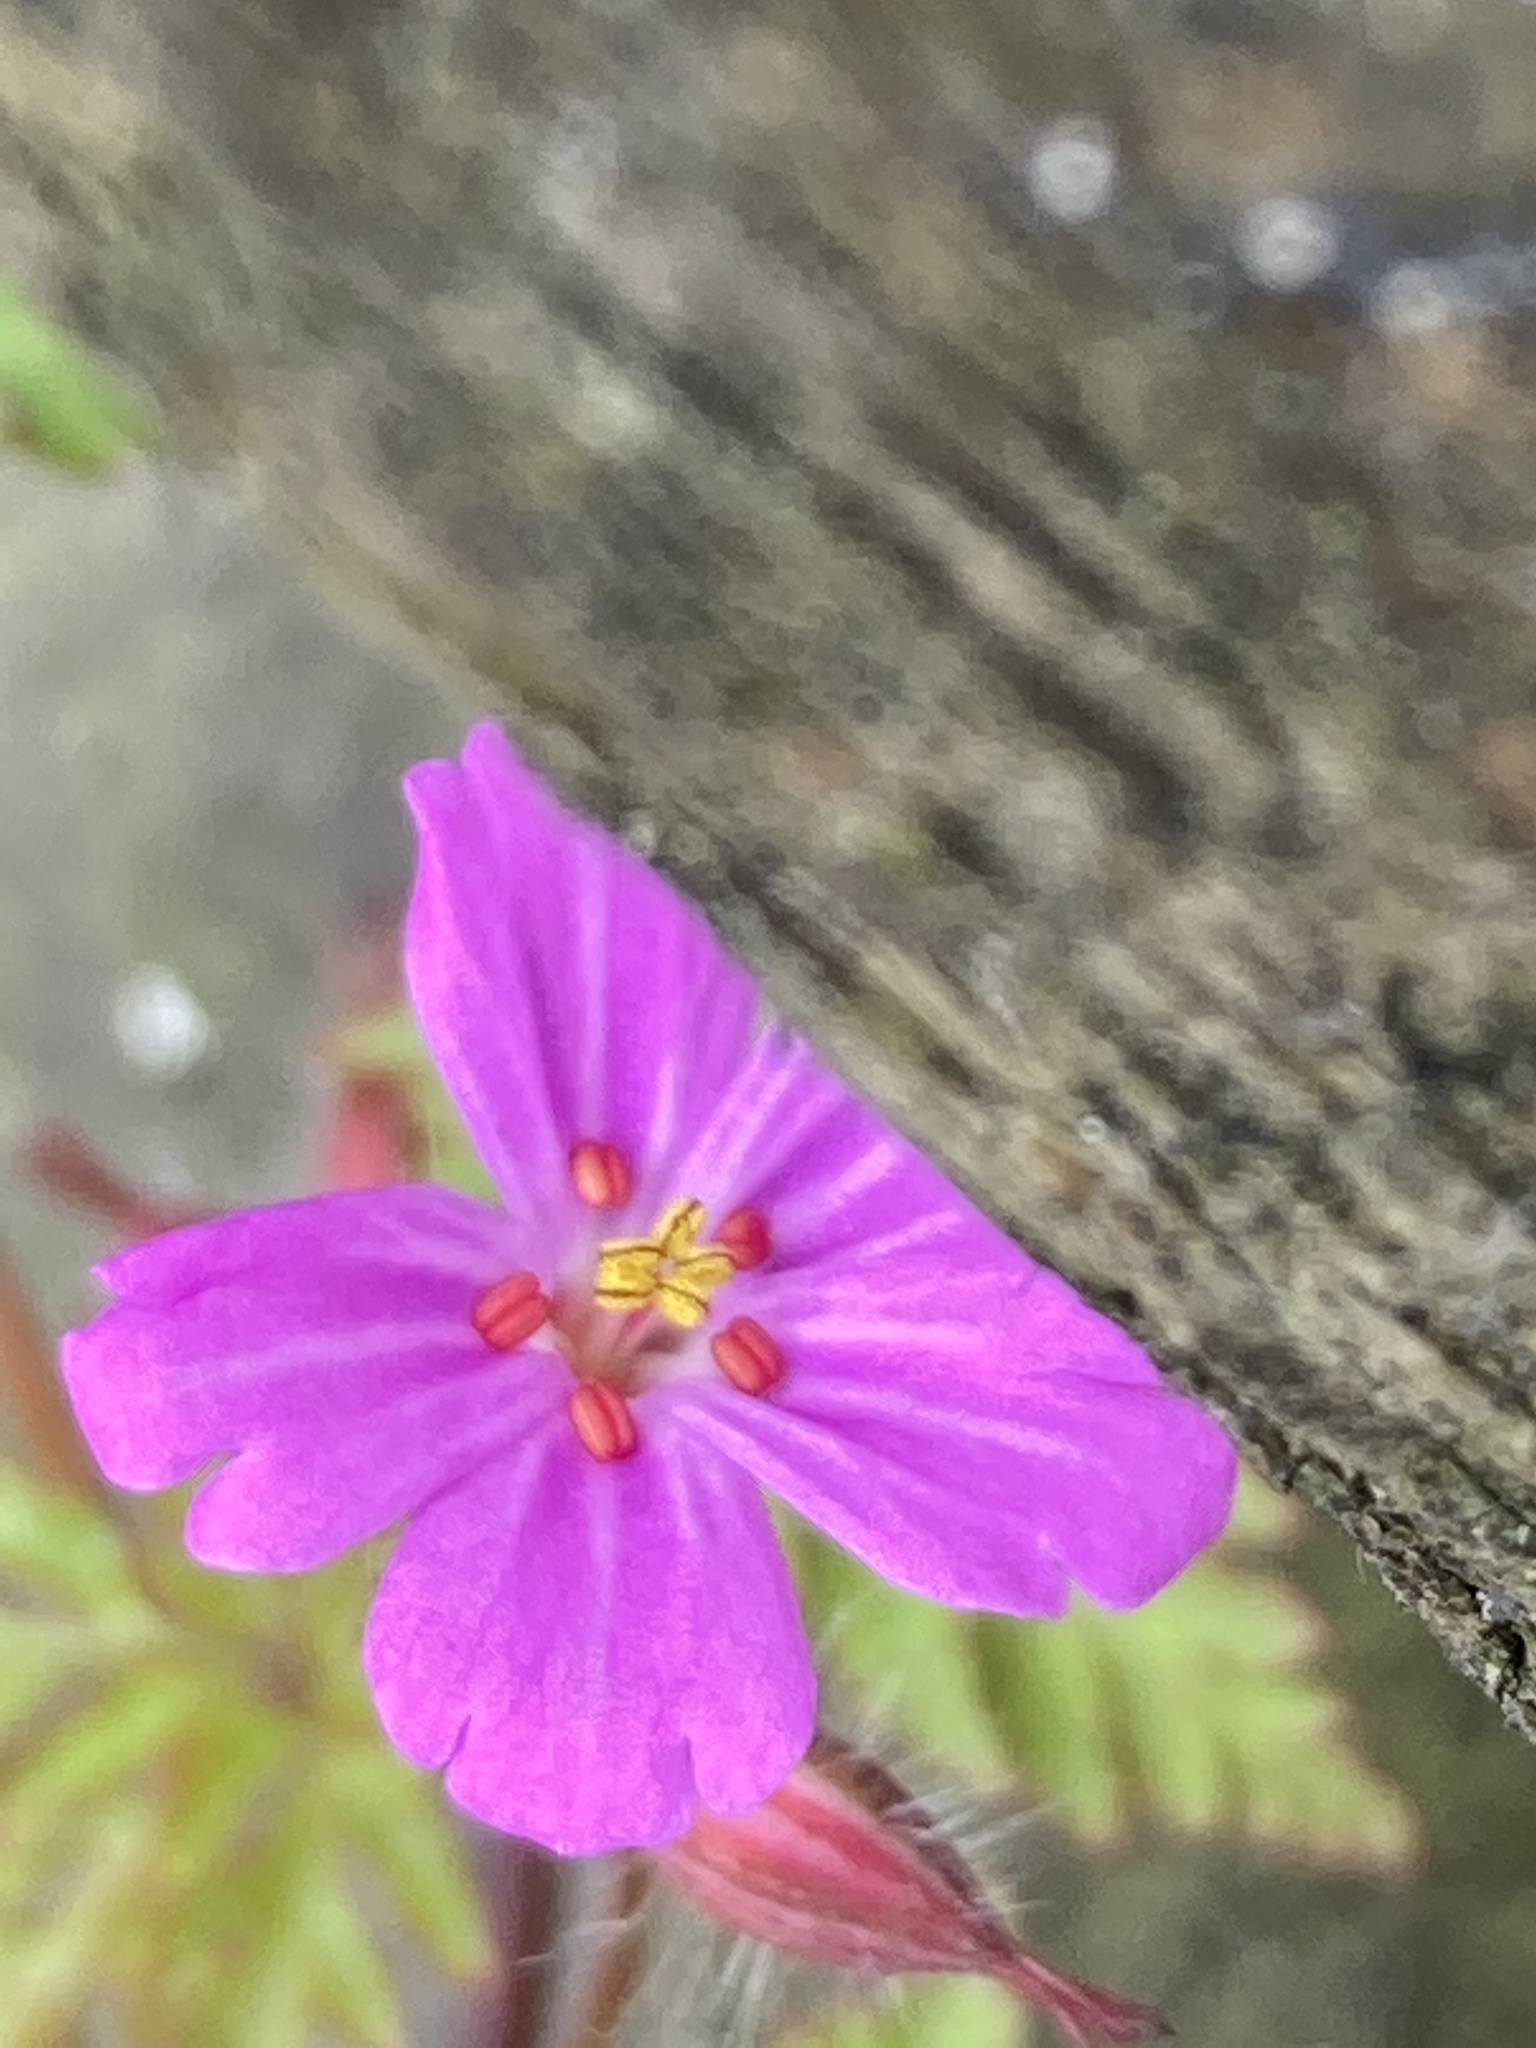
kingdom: Plantae
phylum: Tracheophyta
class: Magnoliopsida
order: Geraniales
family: Geraniaceae
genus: Geranium
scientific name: Geranium robertianum
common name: Herb-robert
